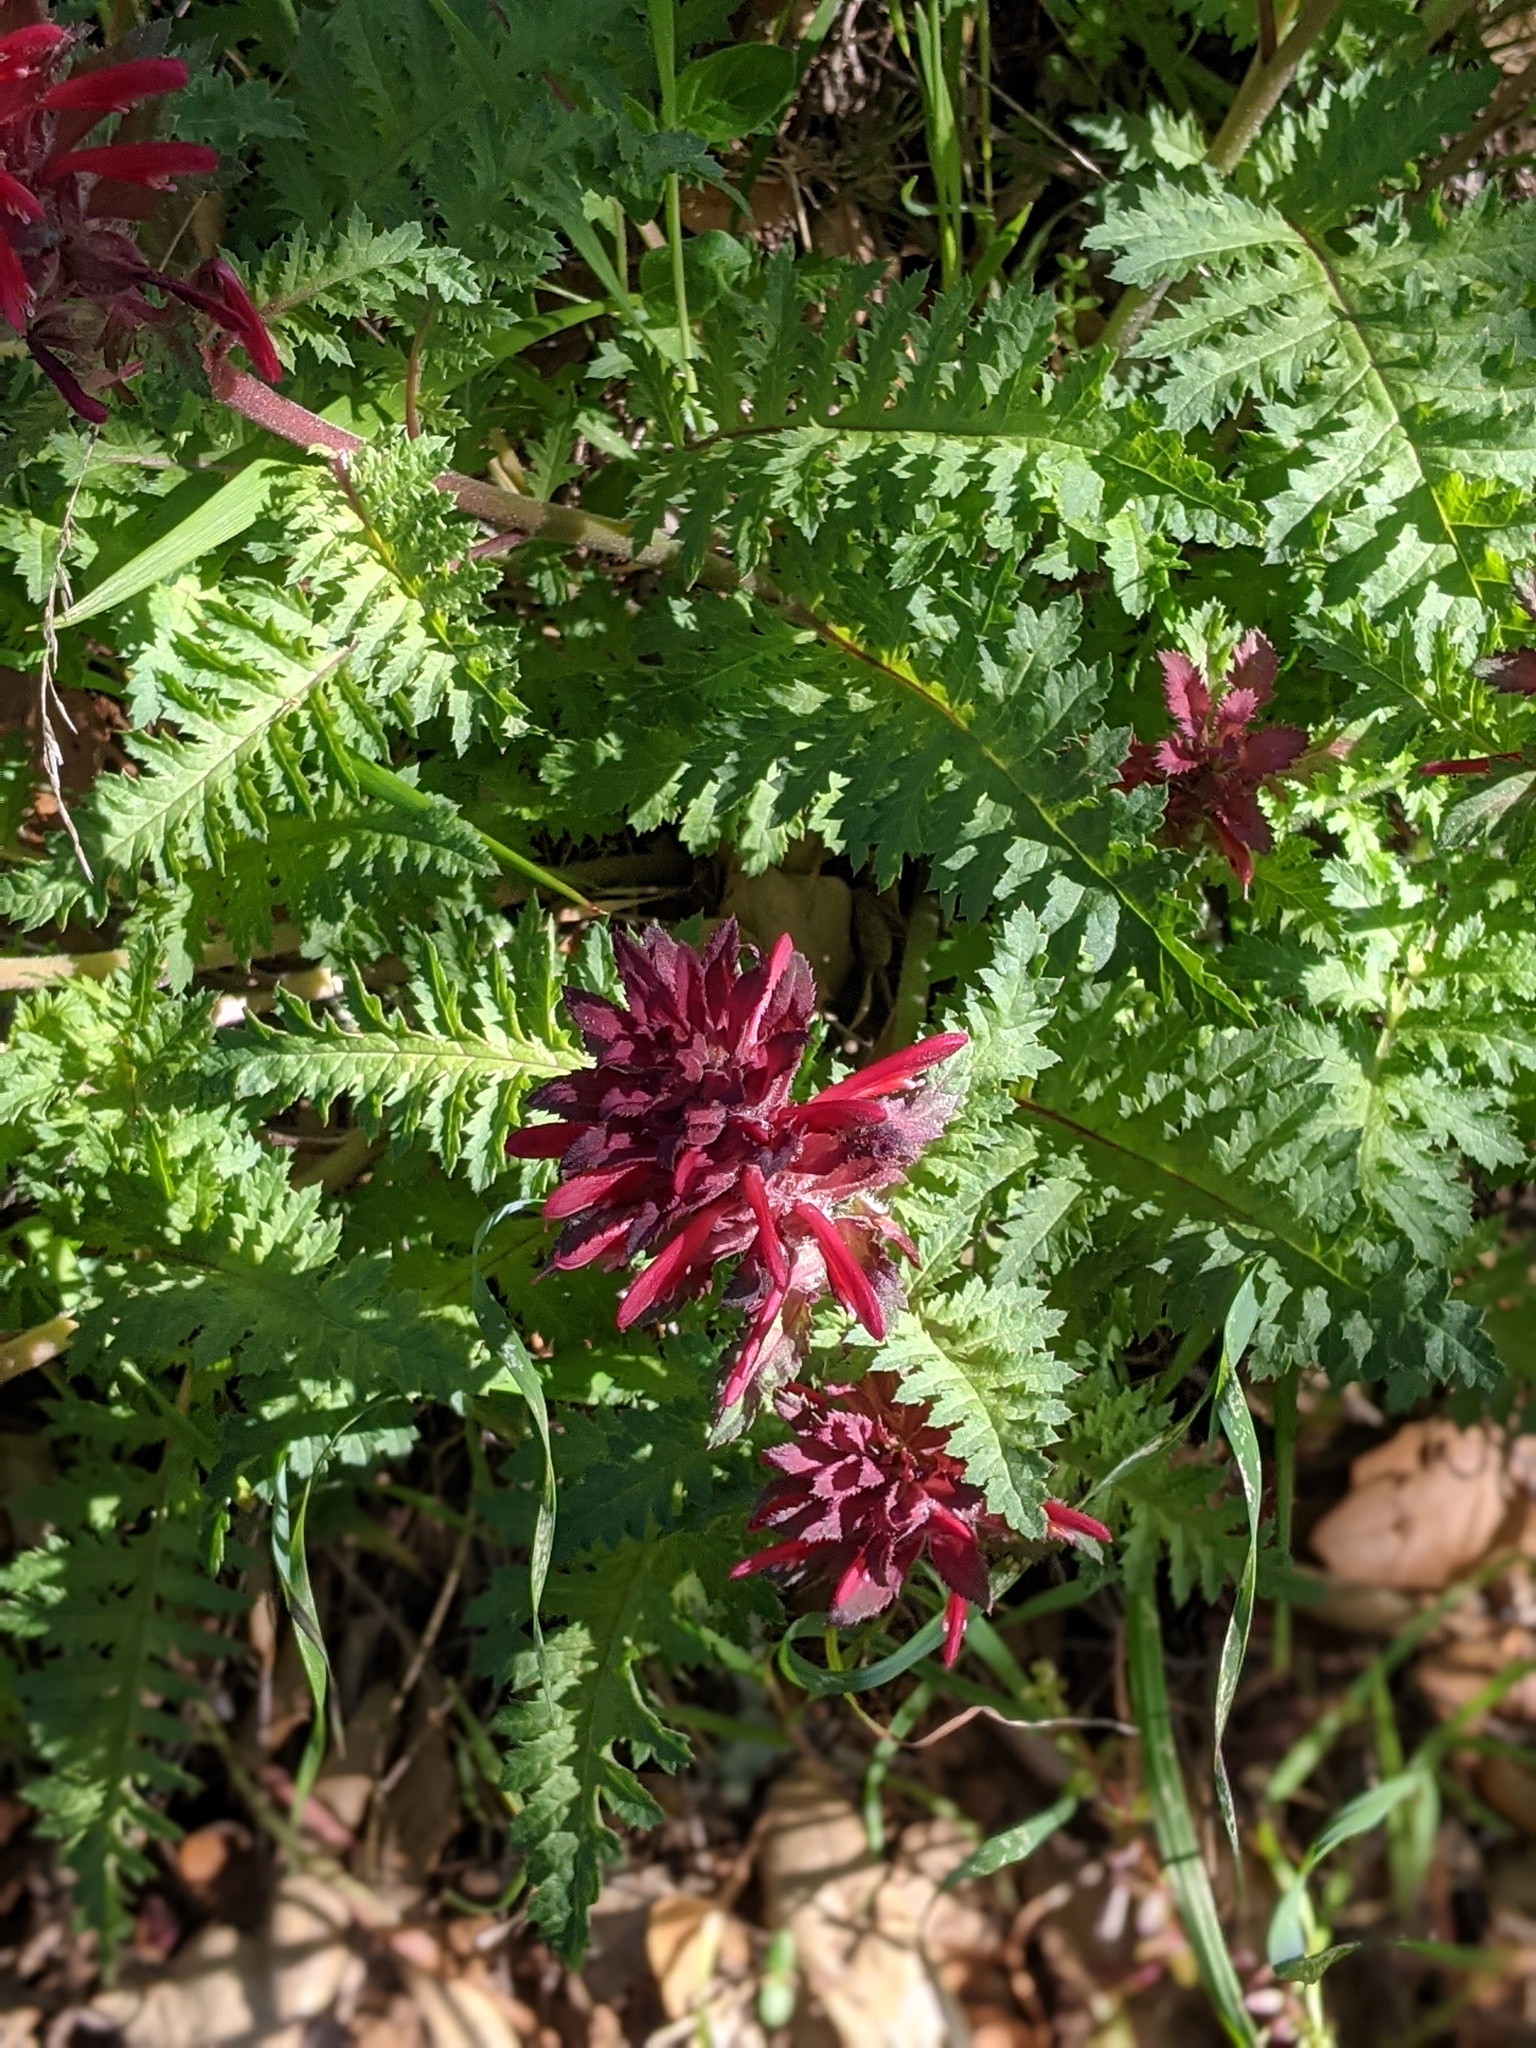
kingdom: Plantae
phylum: Tracheophyta
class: Magnoliopsida
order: Lamiales
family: Orobanchaceae
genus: Pedicularis
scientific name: Pedicularis densiflora
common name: Indian warrior
